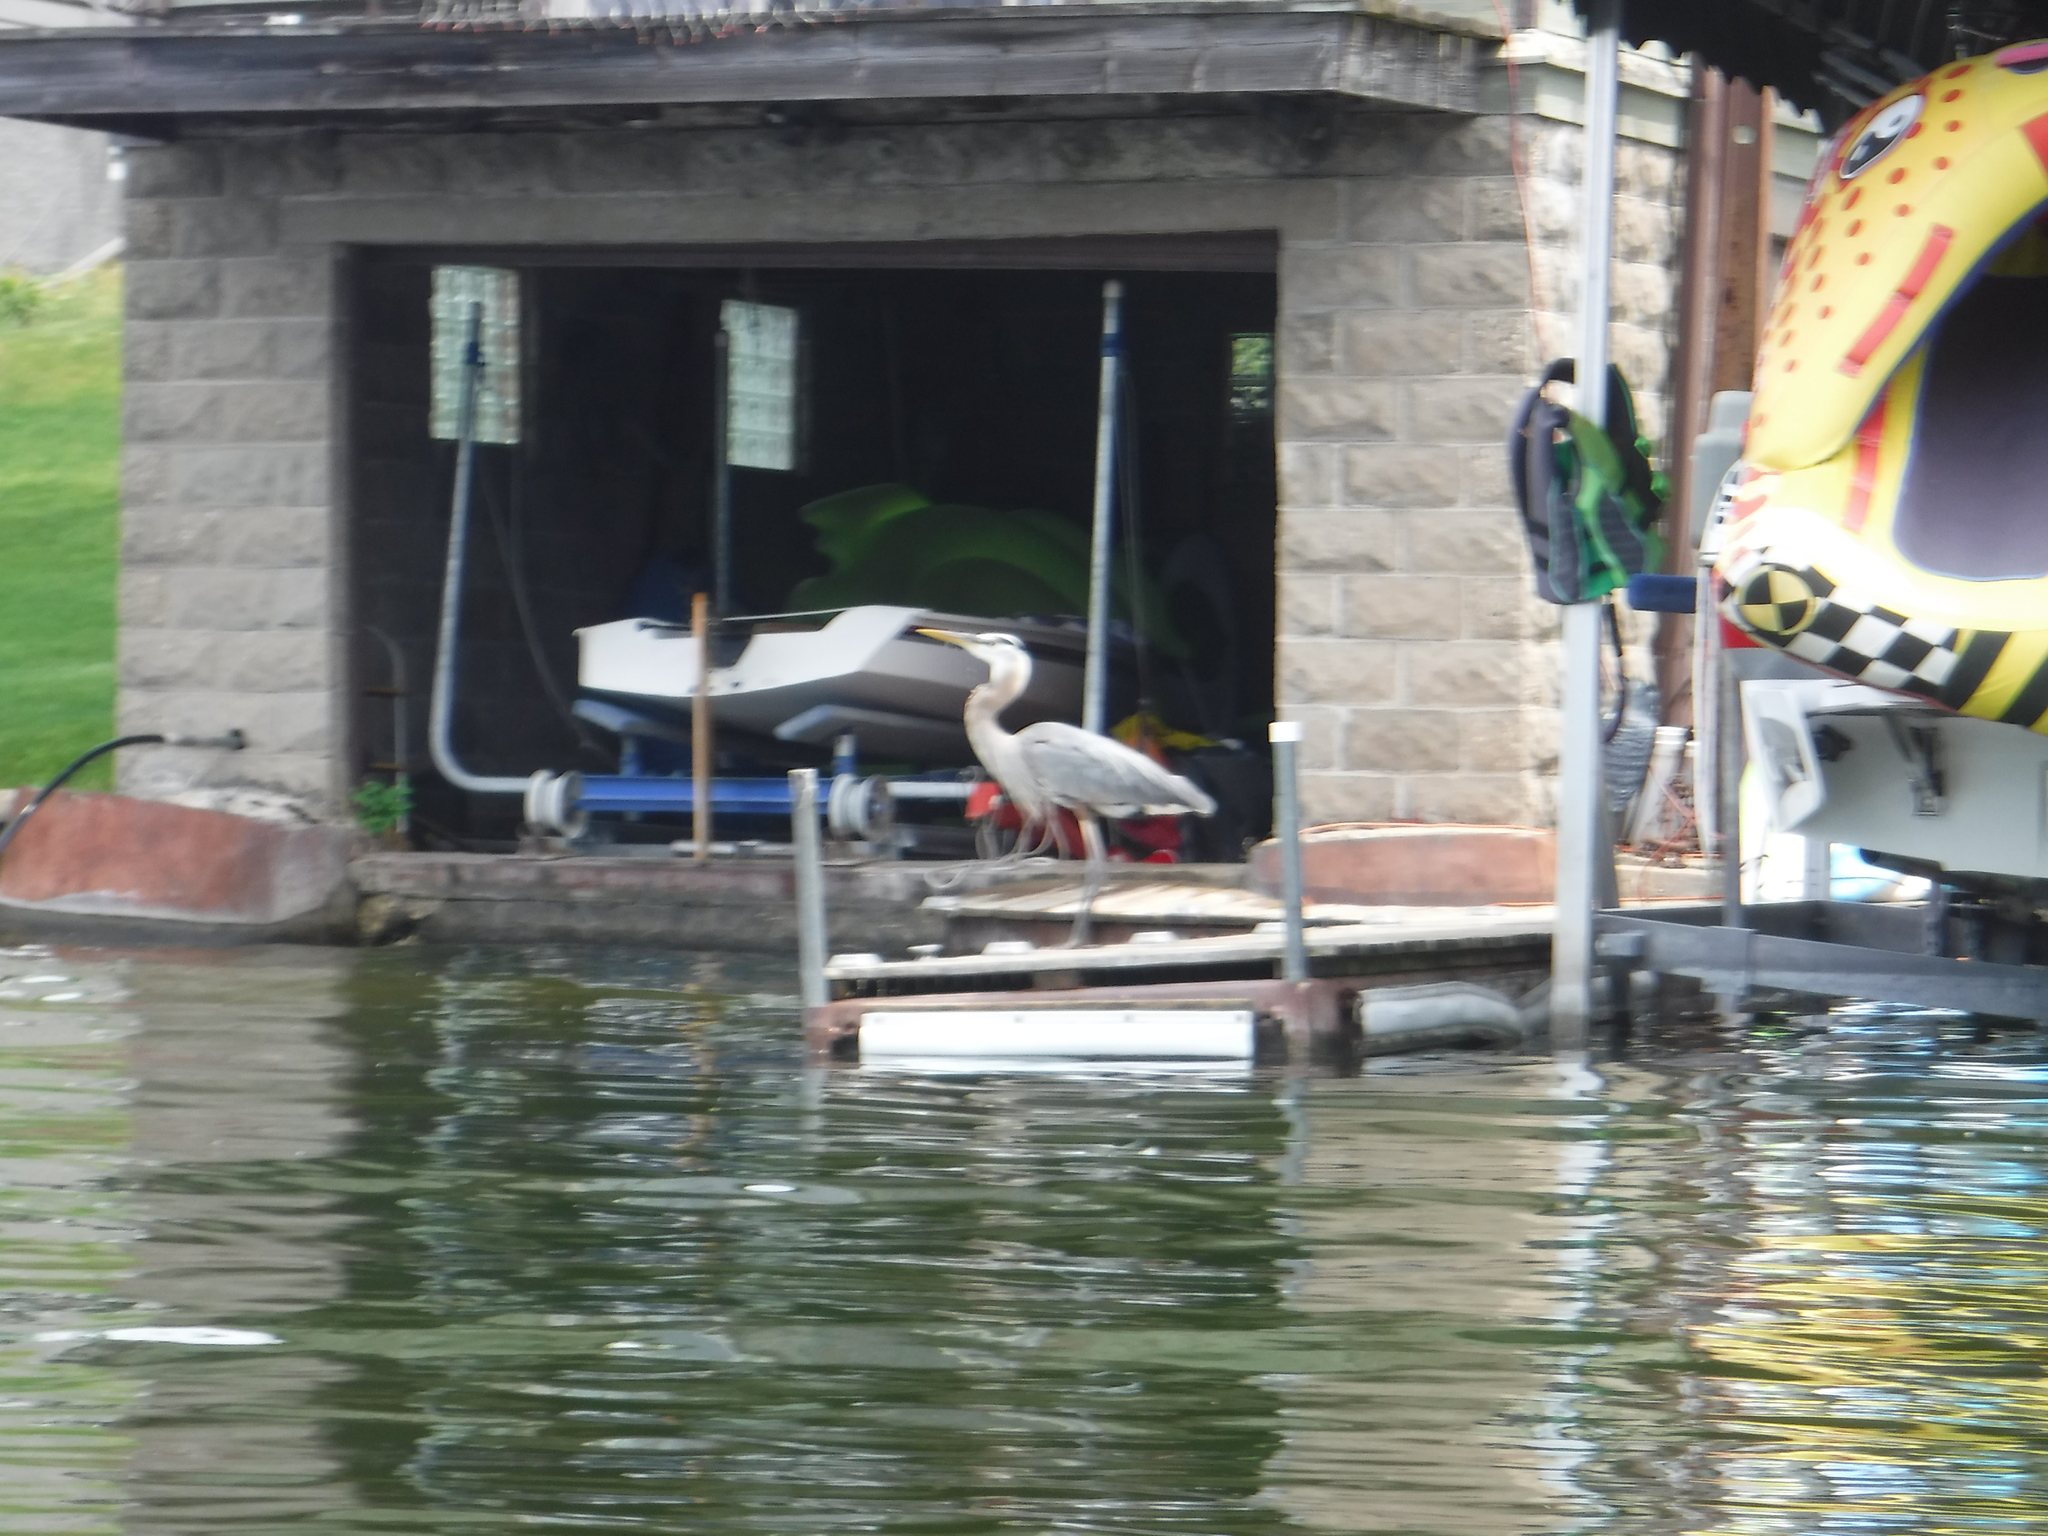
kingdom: Animalia
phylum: Chordata
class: Aves
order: Pelecaniformes
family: Ardeidae
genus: Ardea
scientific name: Ardea herodias
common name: Great blue heron
